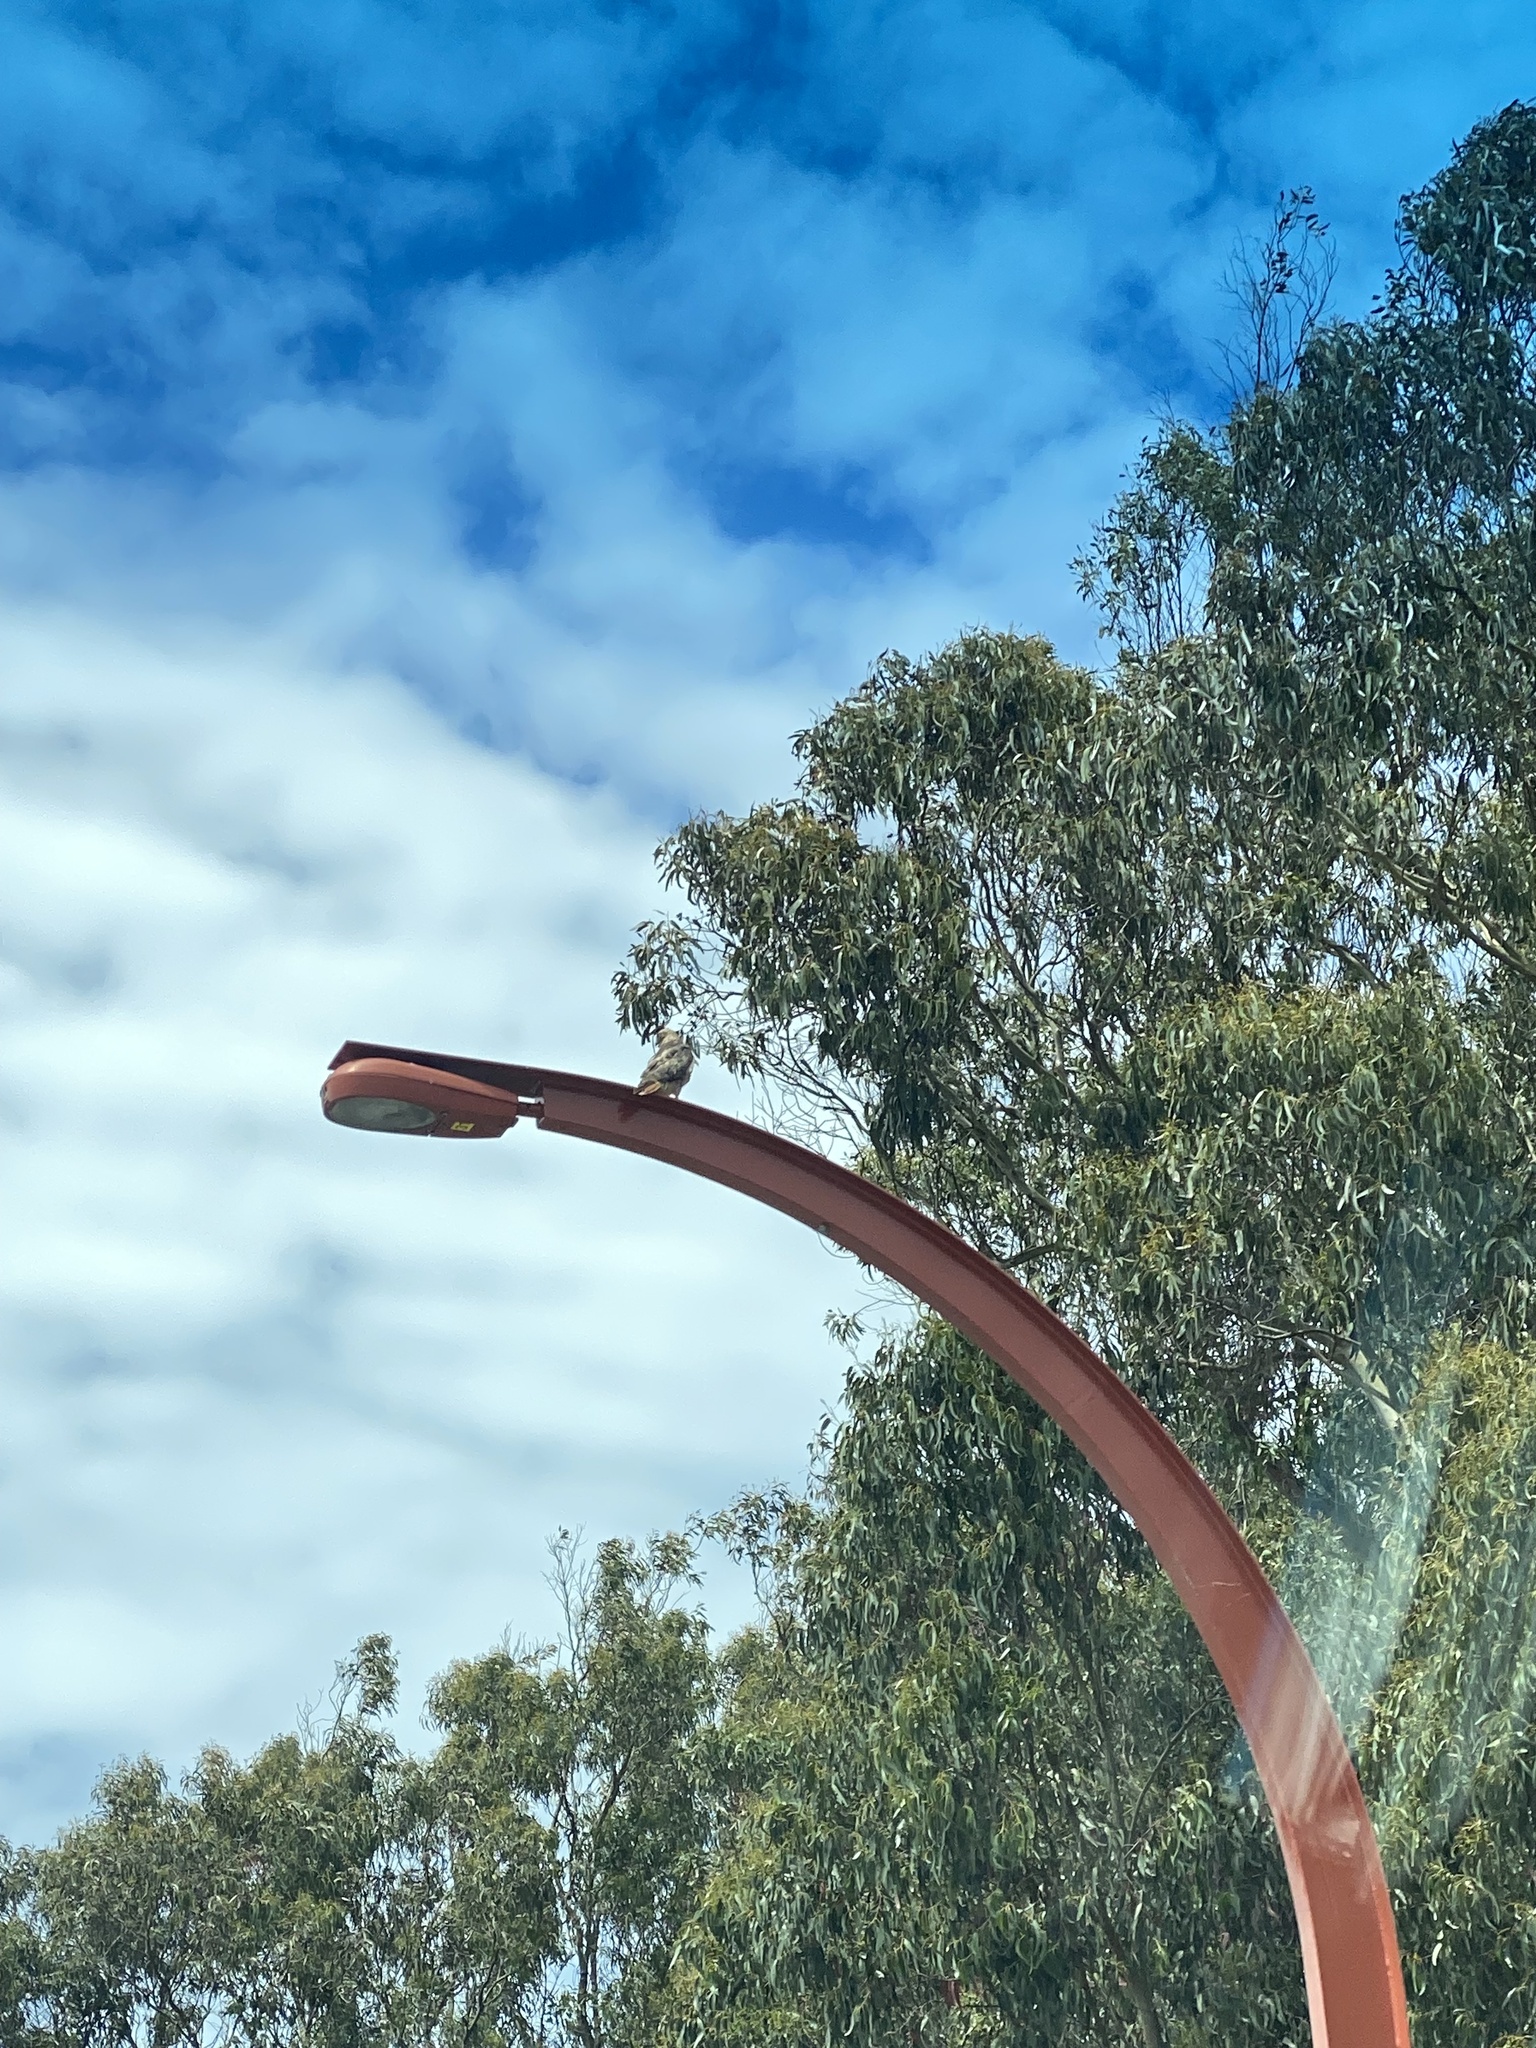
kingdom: Animalia
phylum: Chordata
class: Aves
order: Accipitriformes
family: Accipitridae
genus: Buteo
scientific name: Buteo jamaicensis
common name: Red-tailed hawk
